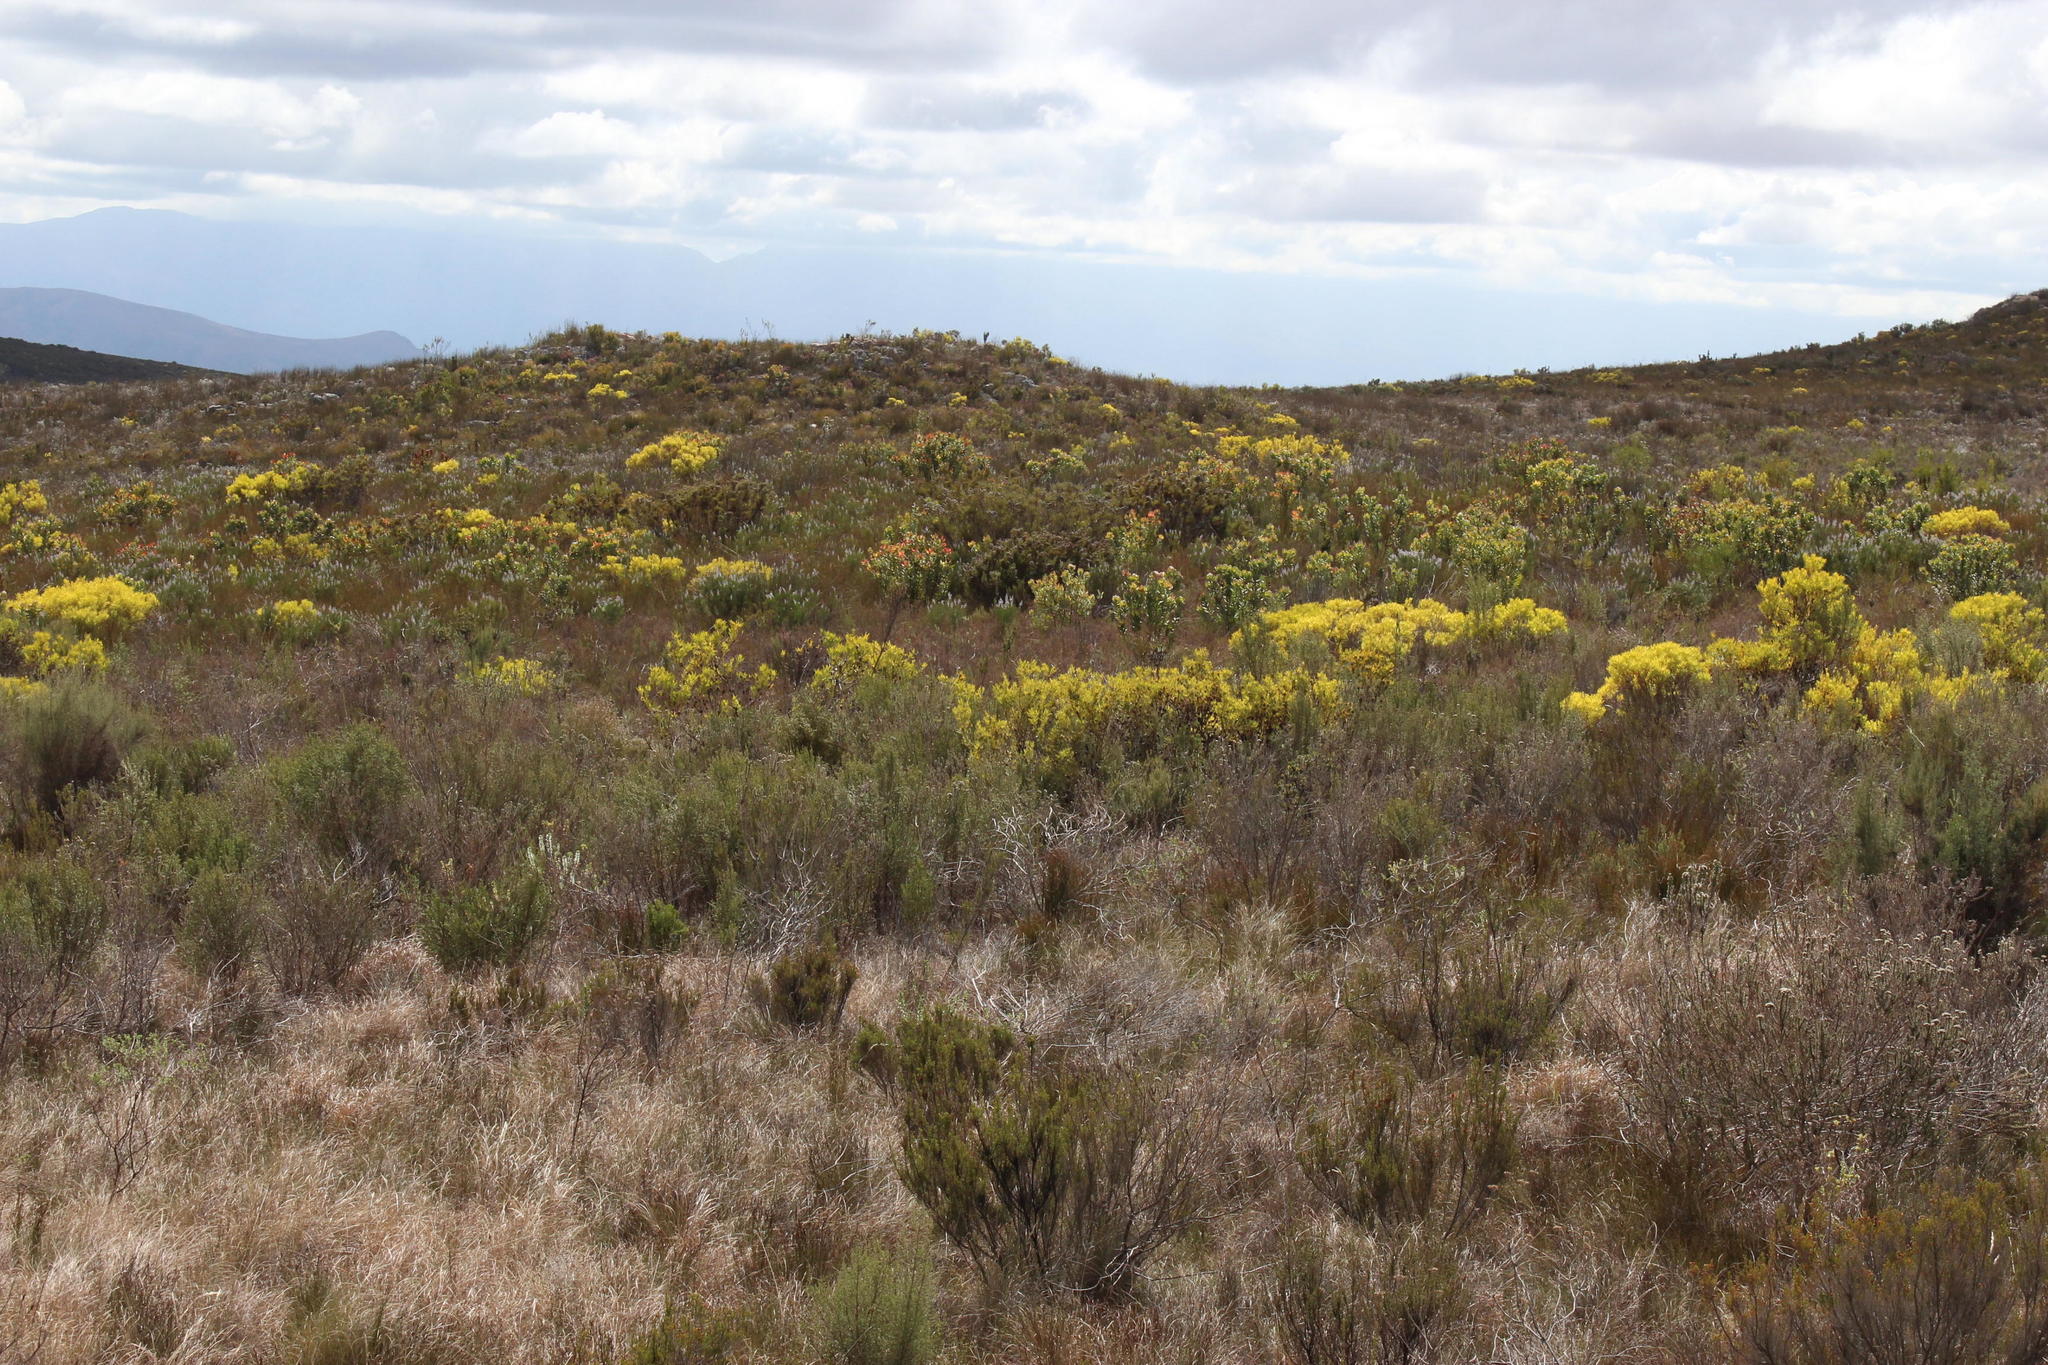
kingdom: Plantae
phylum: Tracheophyta
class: Magnoliopsida
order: Proteales
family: Proteaceae
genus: Leucadendron
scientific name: Leucadendron salignum
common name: Common sunshine conebush
